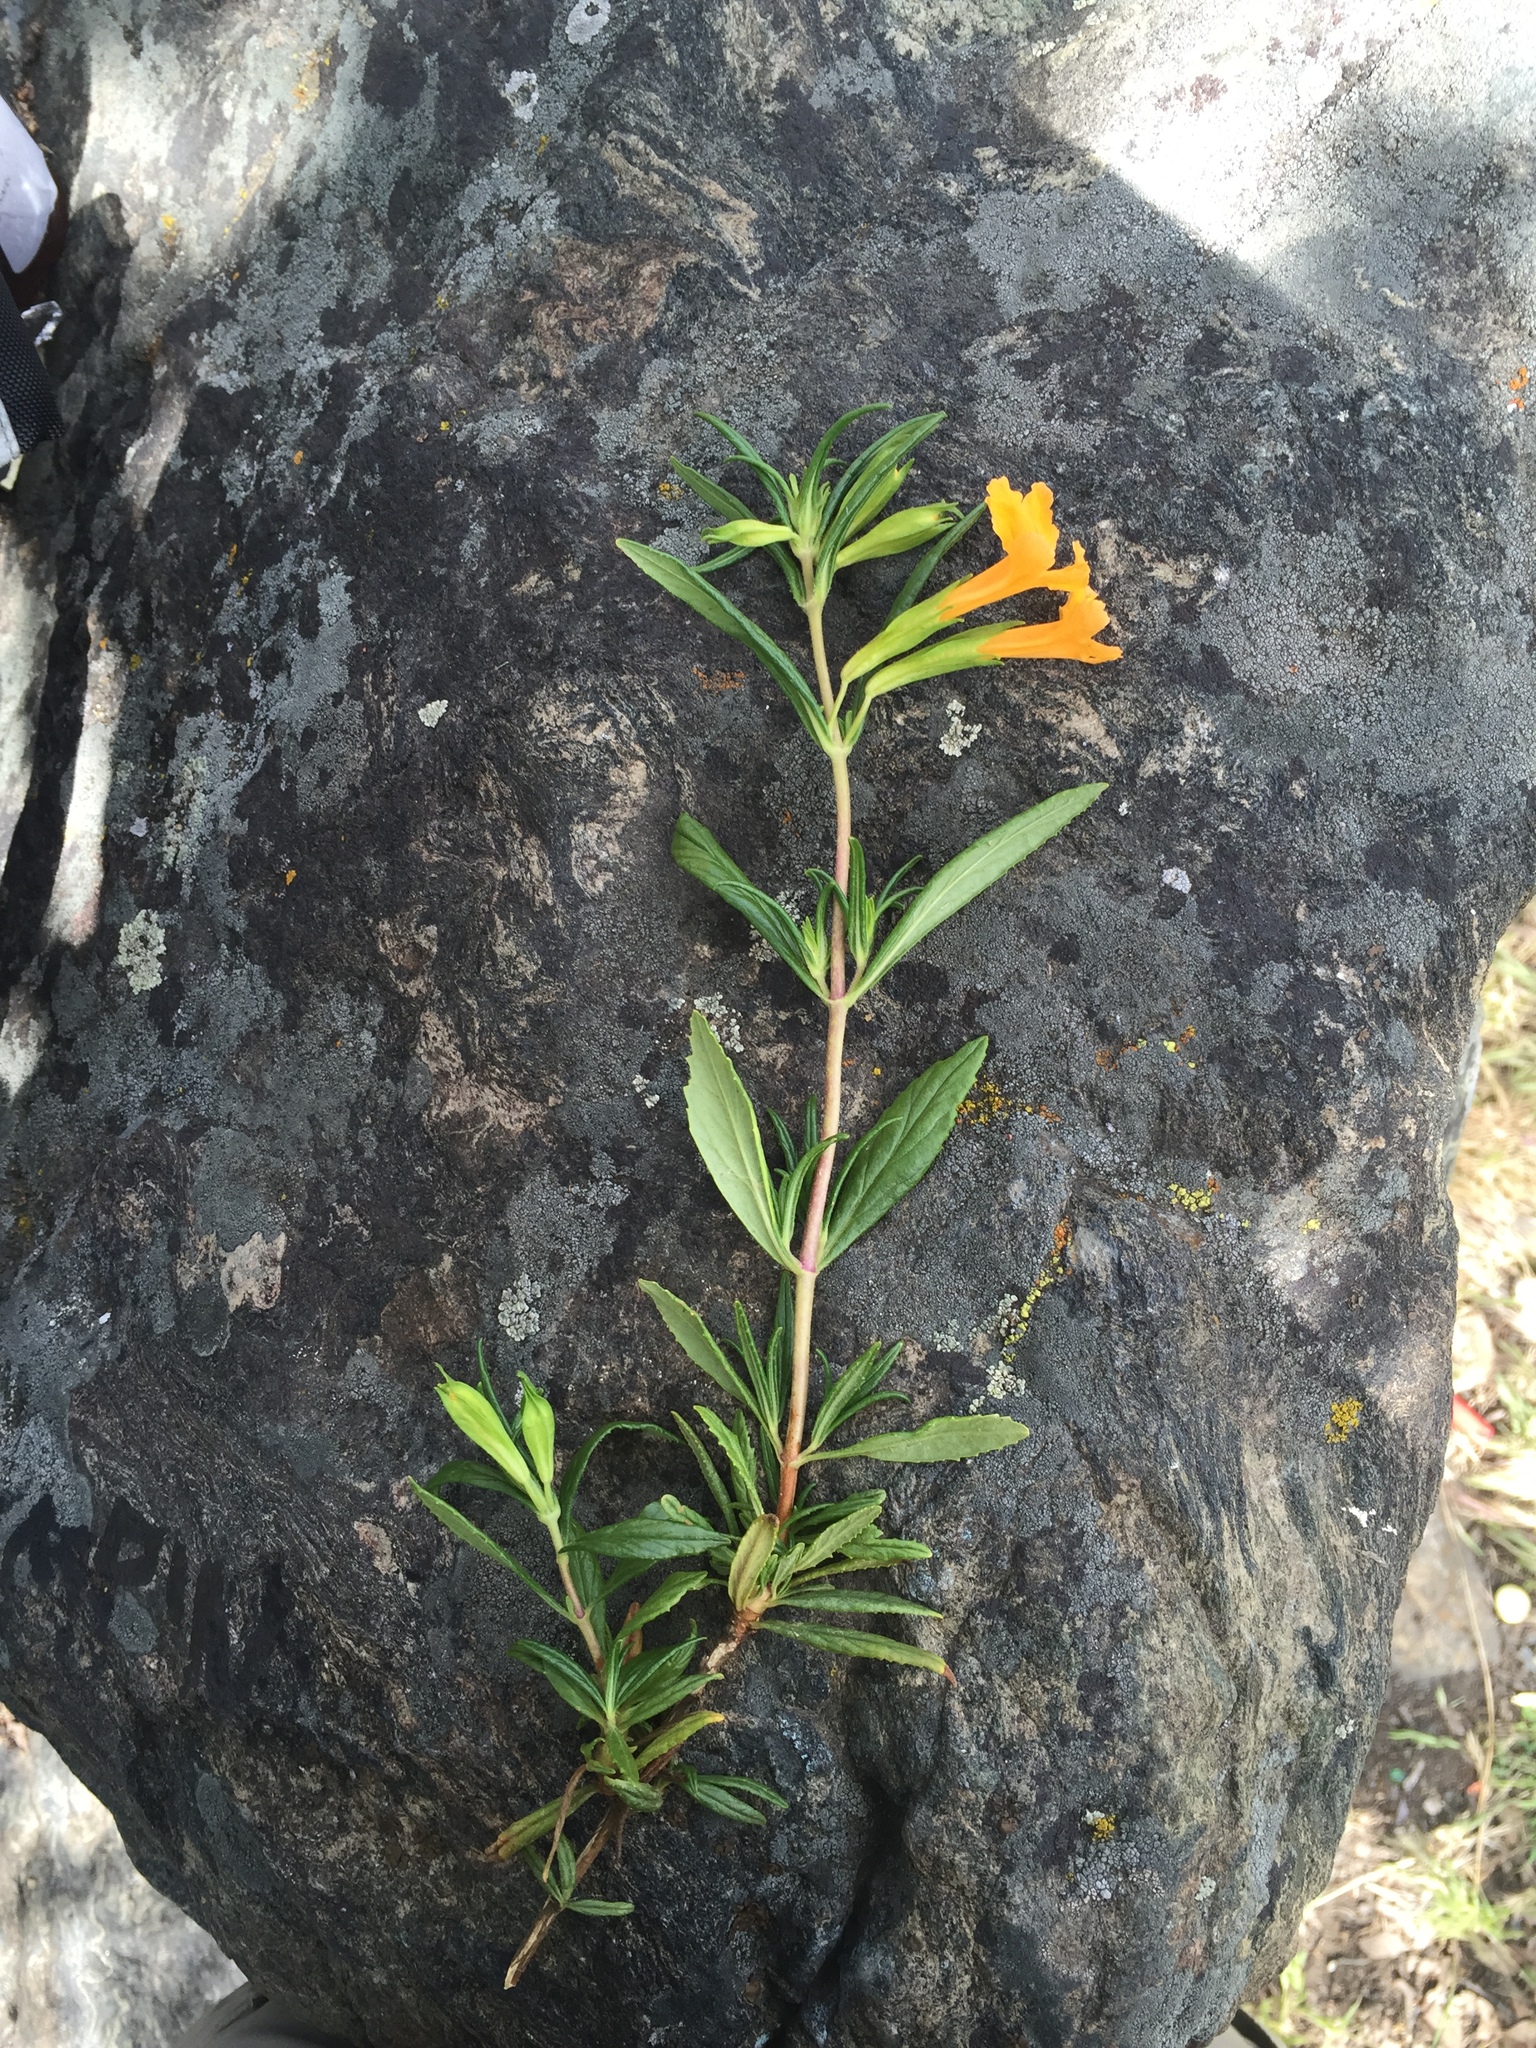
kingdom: Plantae
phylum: Tracheophyta
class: Magnoliopsida
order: Lamiales
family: Phrymaceae
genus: Diplacus
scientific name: Diplacus aurantiacus
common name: Bush monkey-flower
